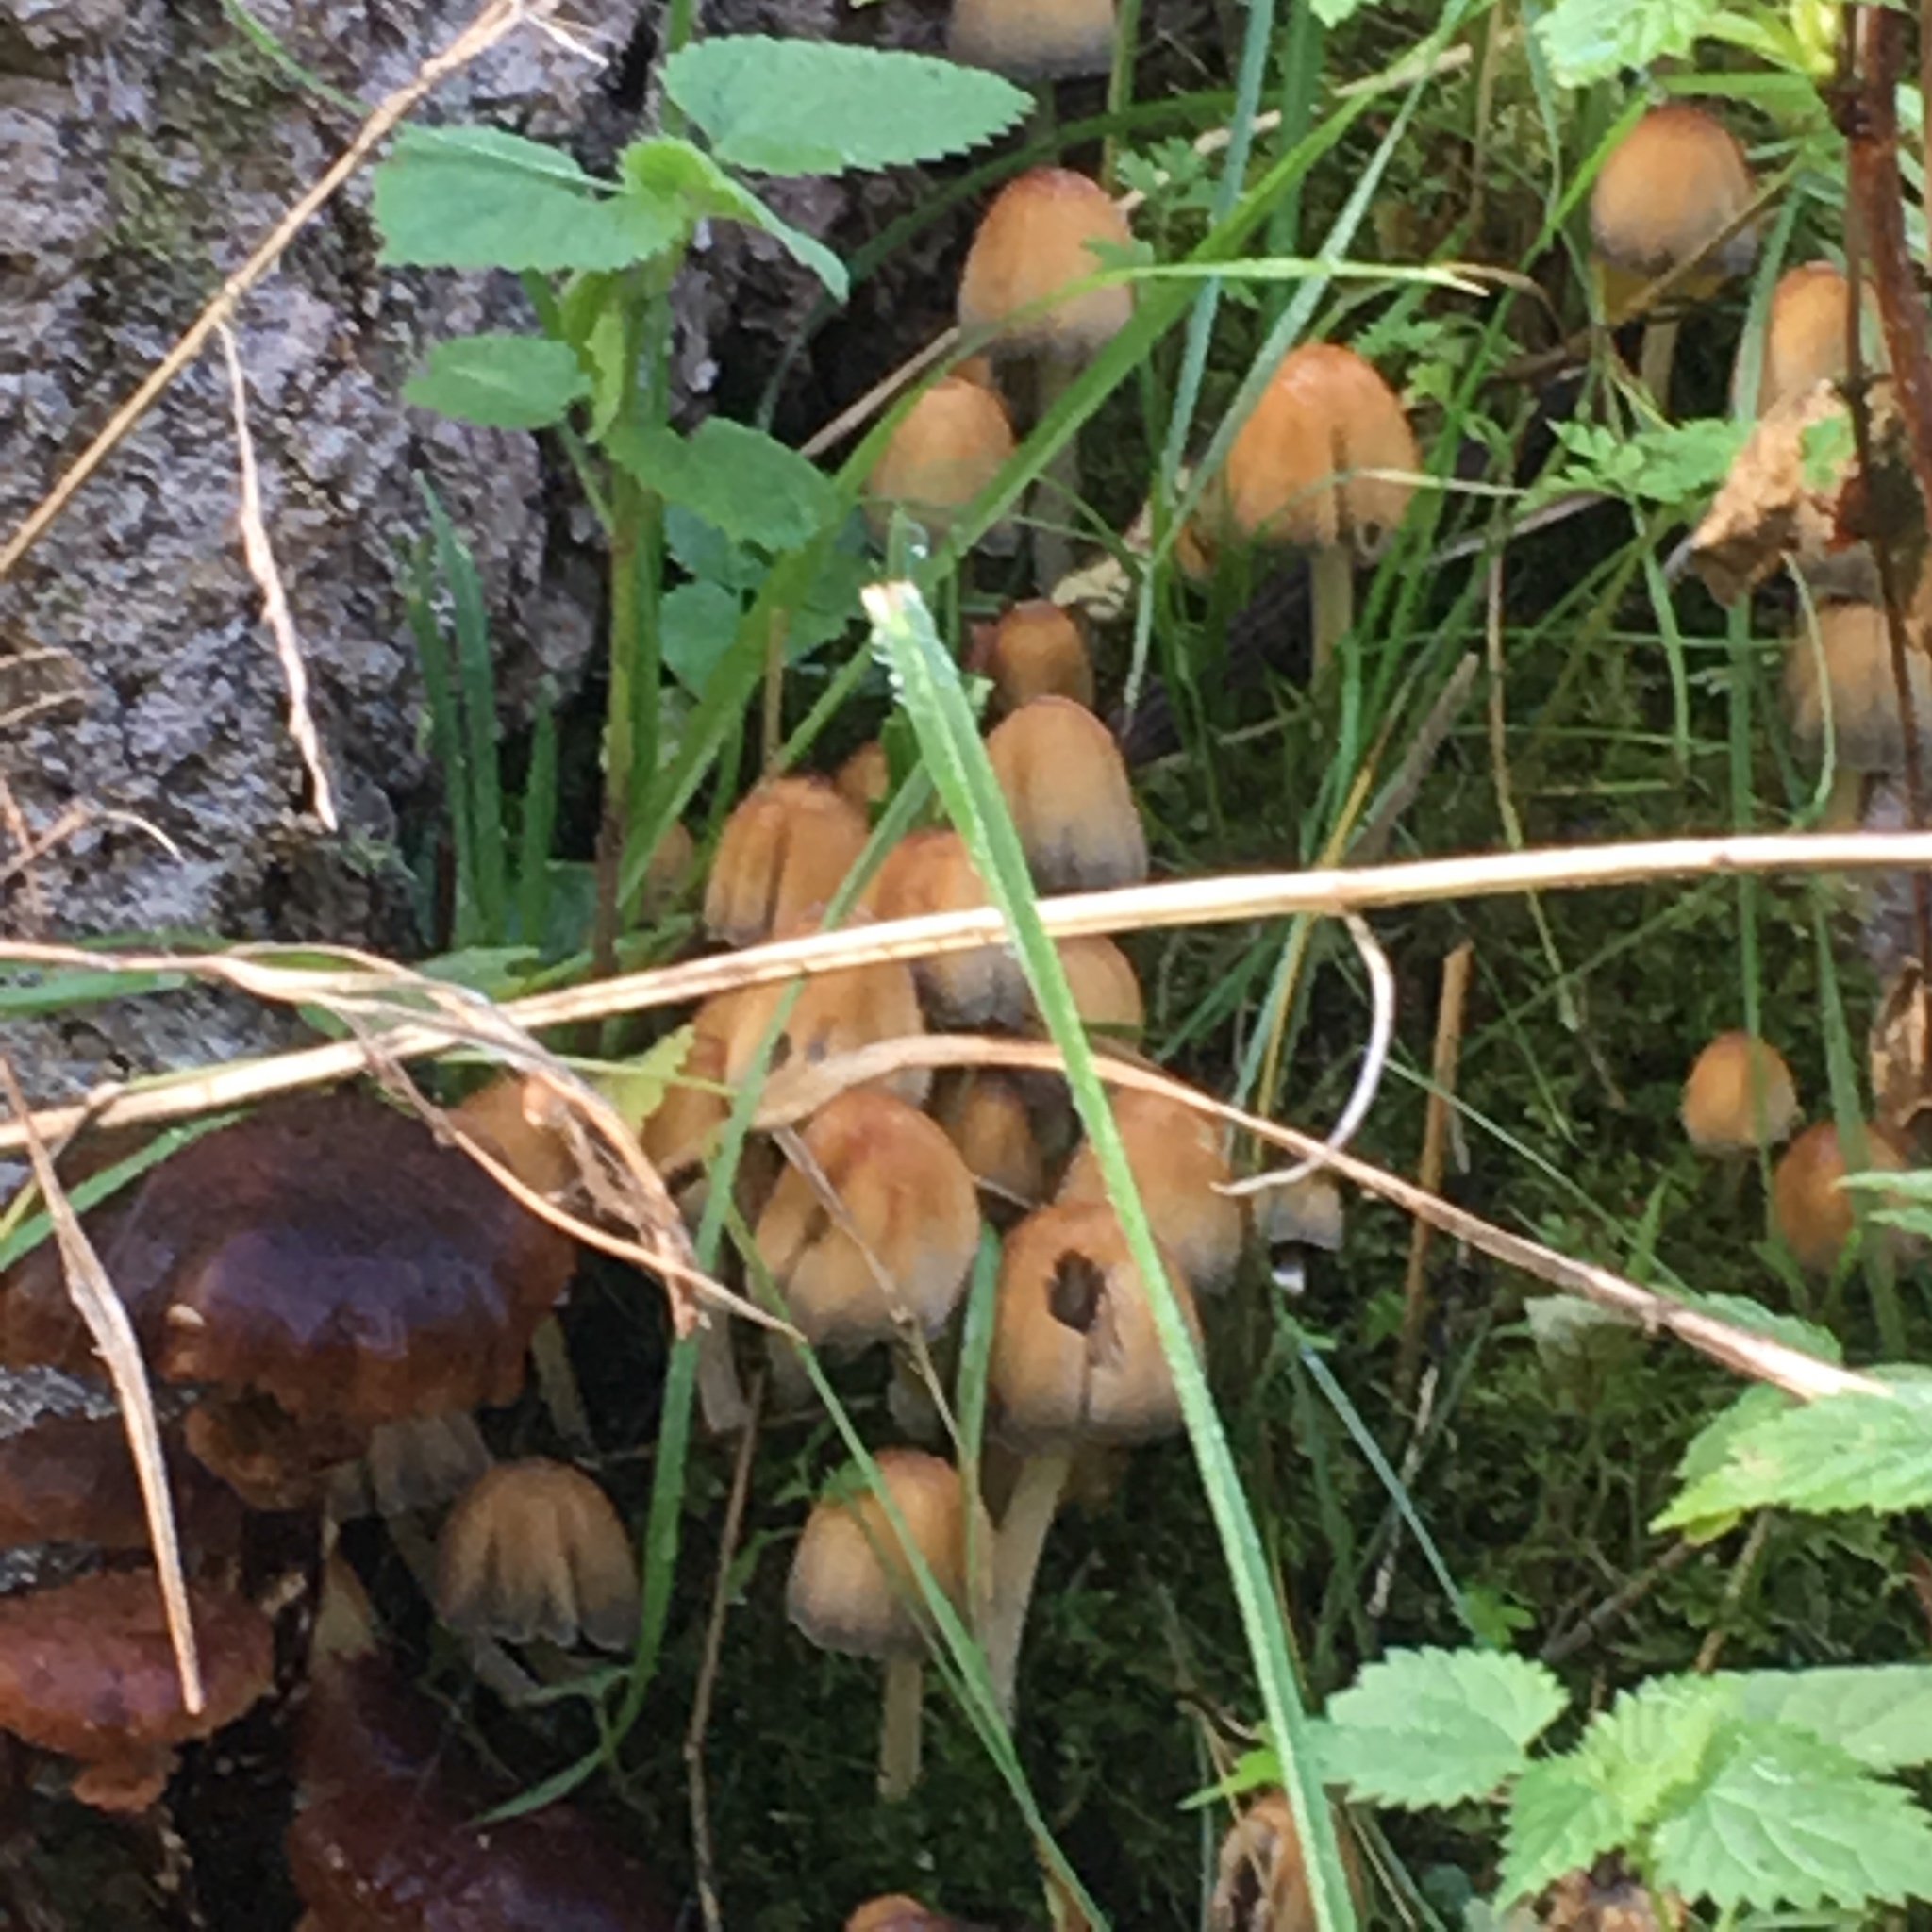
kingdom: Fungi
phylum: Basidiomycota
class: Agaricomycetes
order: Agaricales
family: Psathyrellaceae
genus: Coprinellus
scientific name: Coprinellus micaceus
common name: Glistening ink-cap
